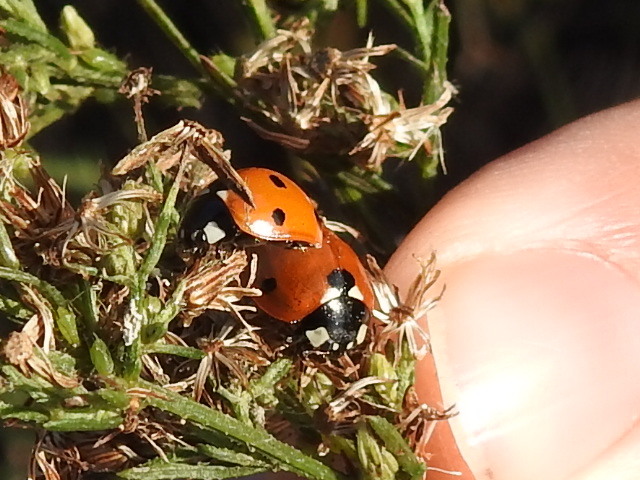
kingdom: Animalia
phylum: Arthropoda
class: Insecta
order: Coleoptera
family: Coccinellidae
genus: Coccinella
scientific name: Coccinella septempunctata
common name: Sevenspotted lady beetle
